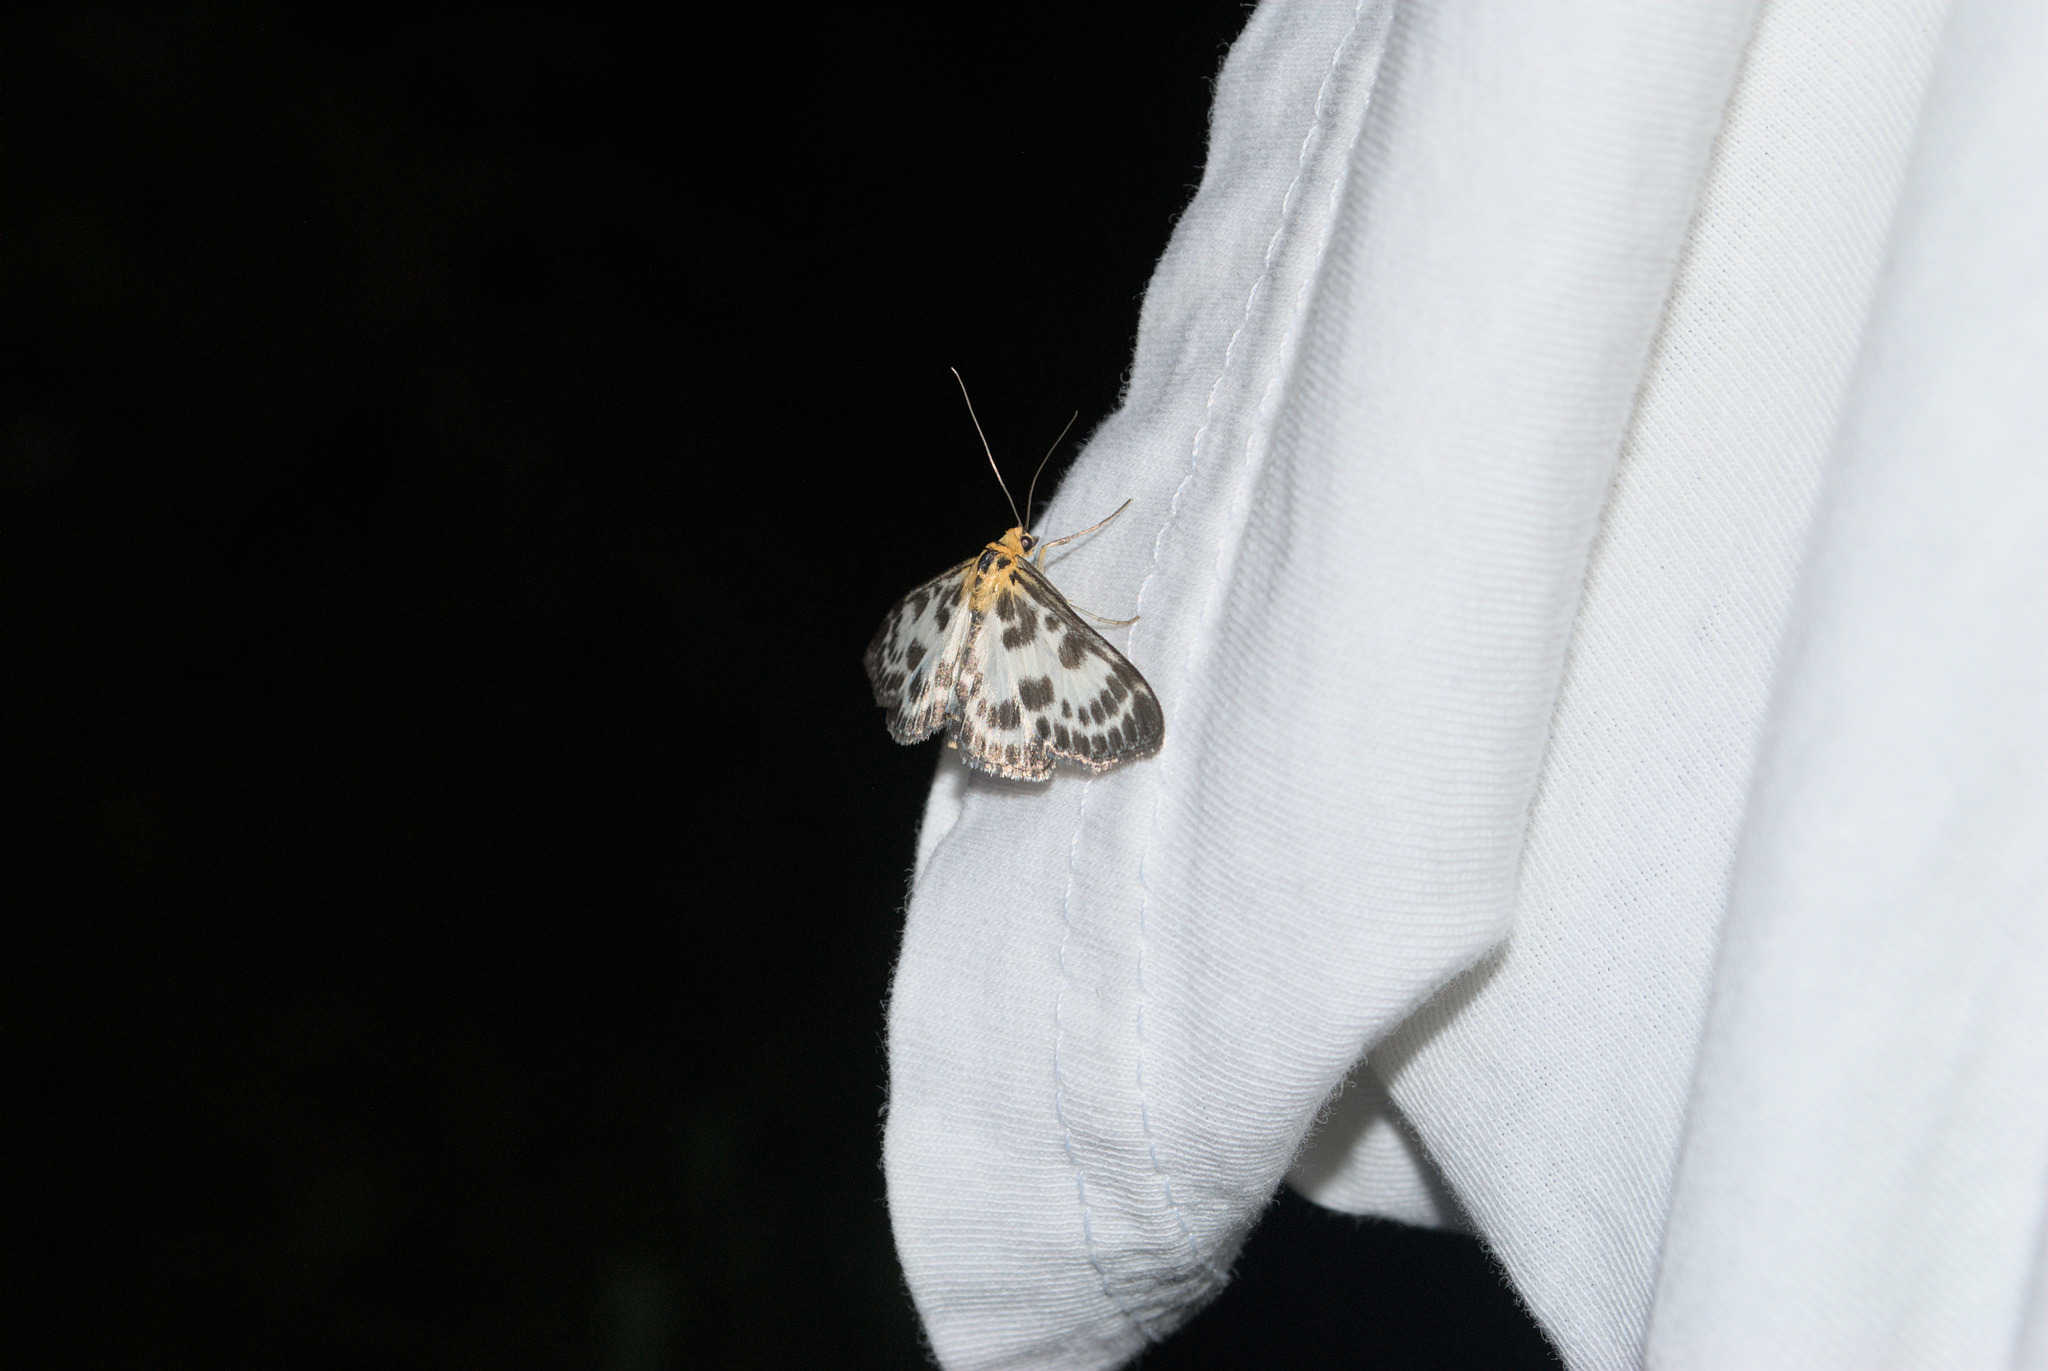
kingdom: Animalia
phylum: Arthropoda
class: Insecta
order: Lepidoptera
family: Crambidae
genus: Anania
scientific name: Anania hortulata
